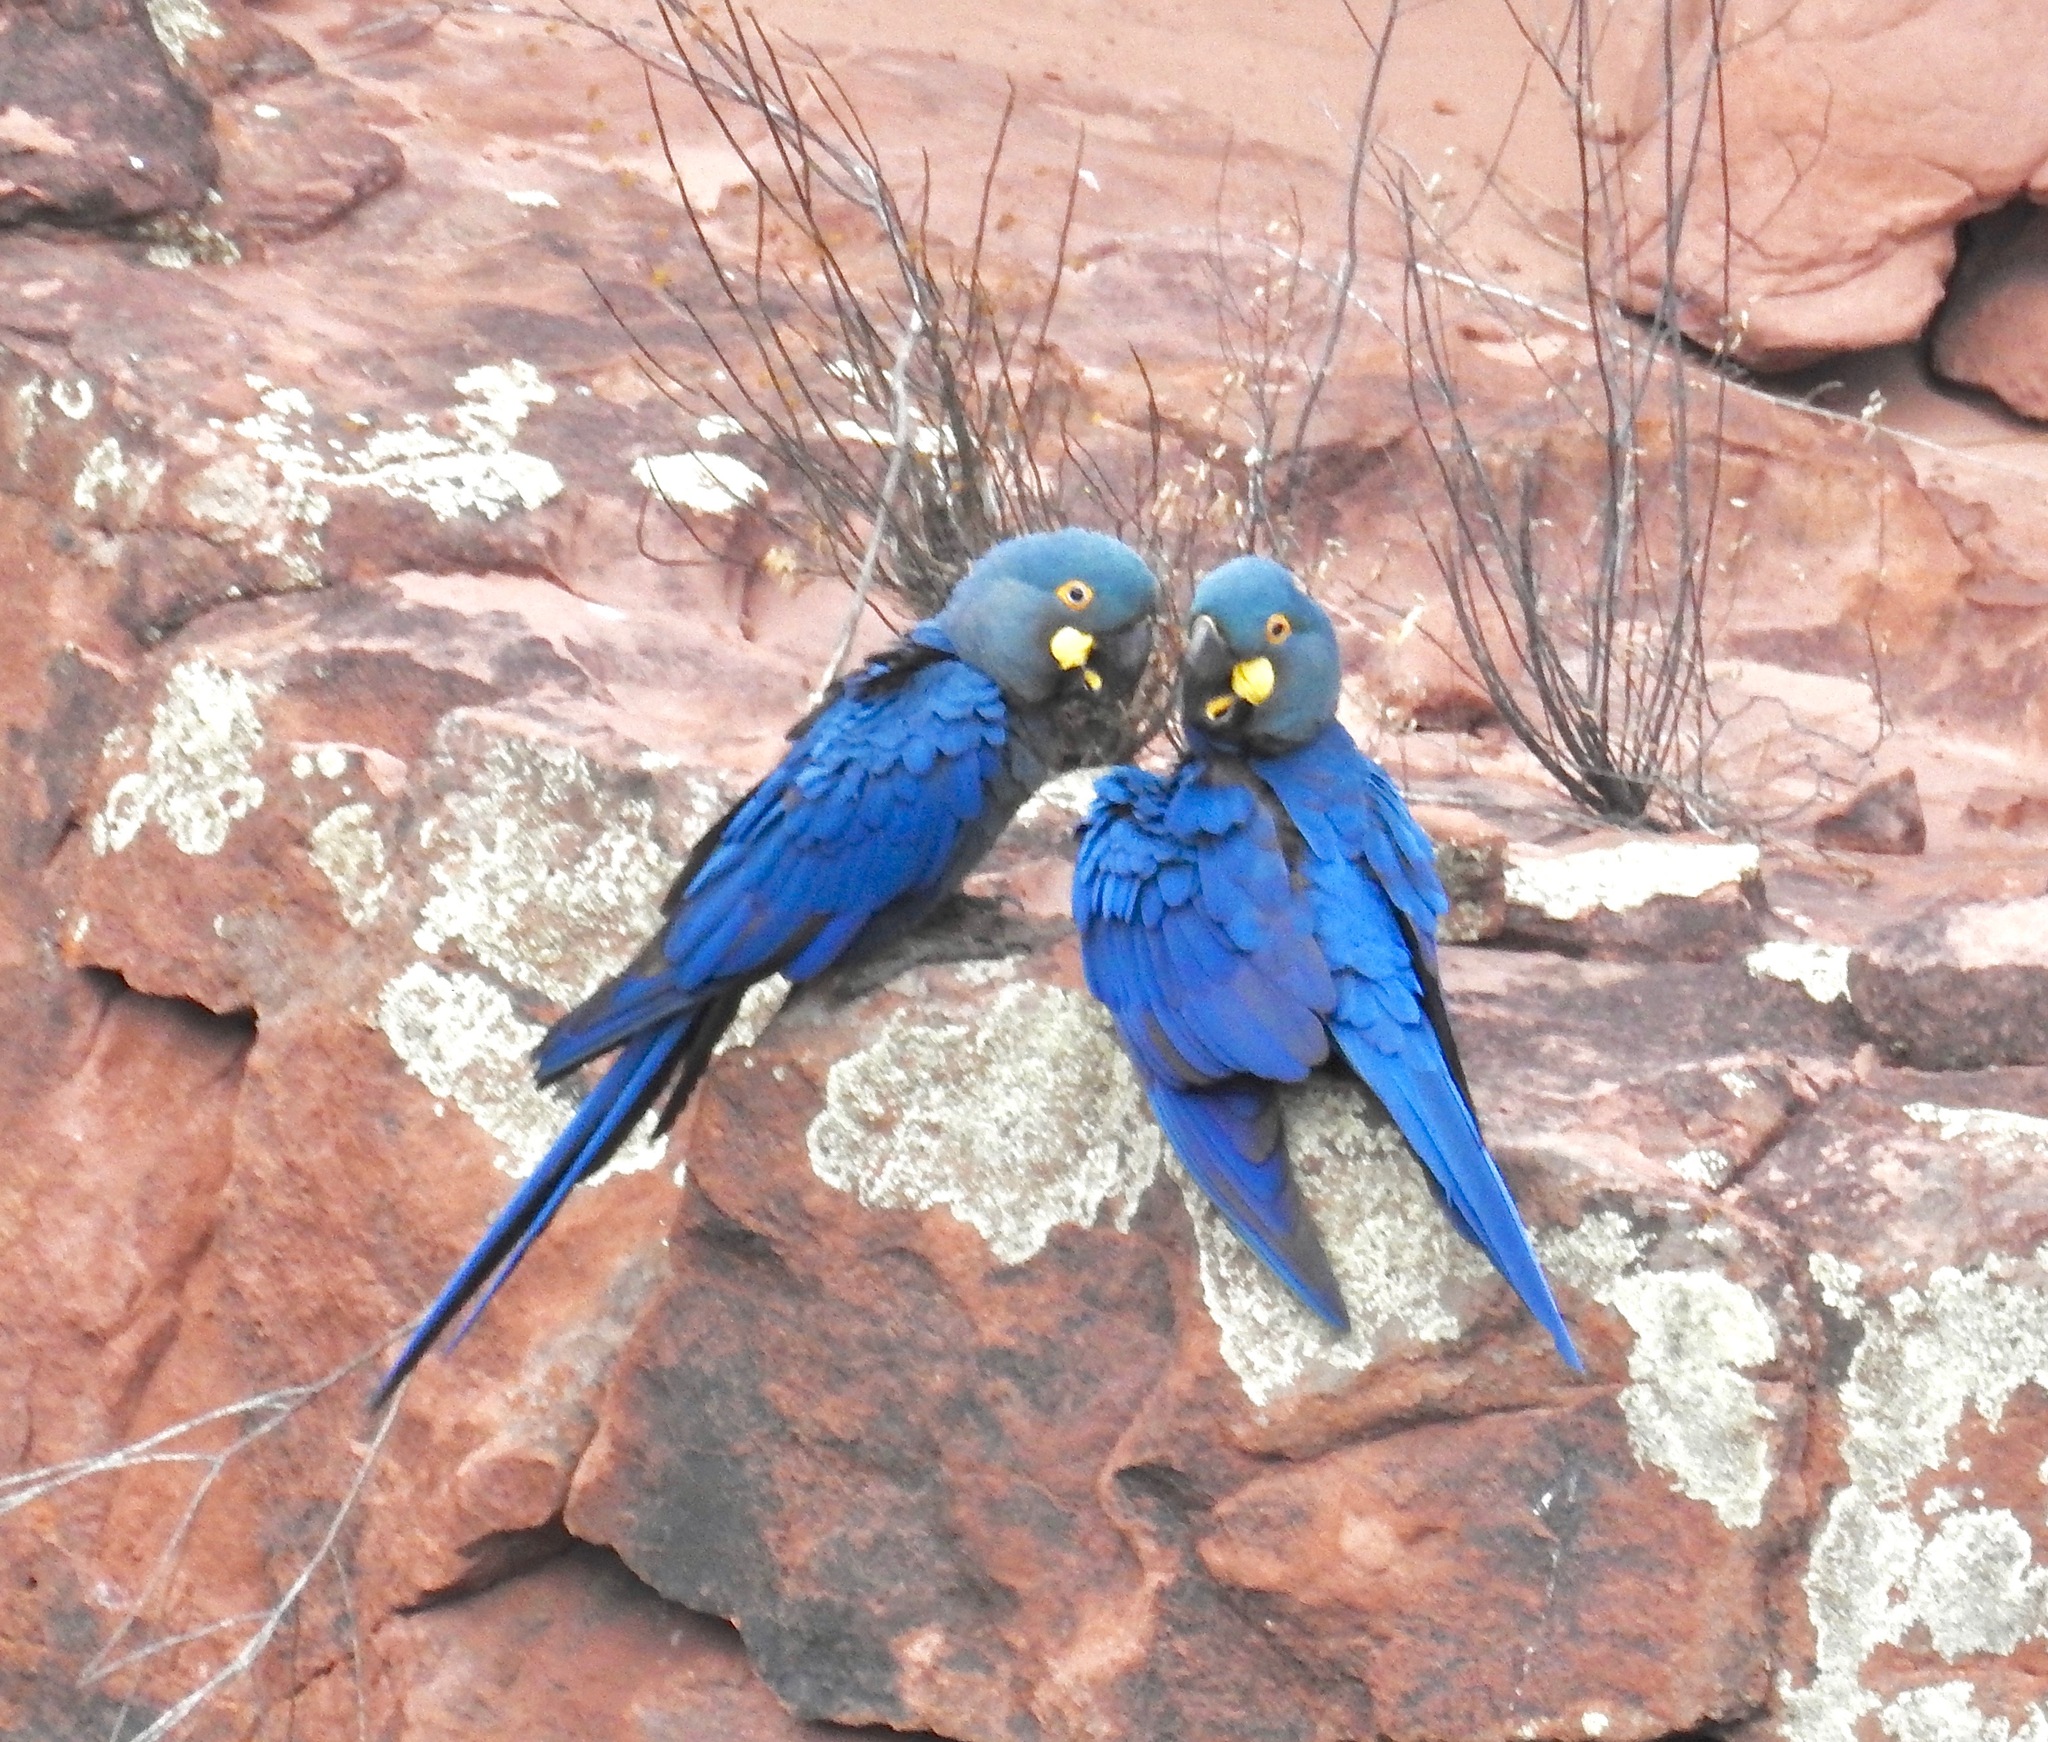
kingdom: Animalia
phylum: Chordata
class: Aves
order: Psittaciformes
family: Psittacidae
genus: Anodorhynchus
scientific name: Anodorhynchus leari
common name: Lear's macaw
